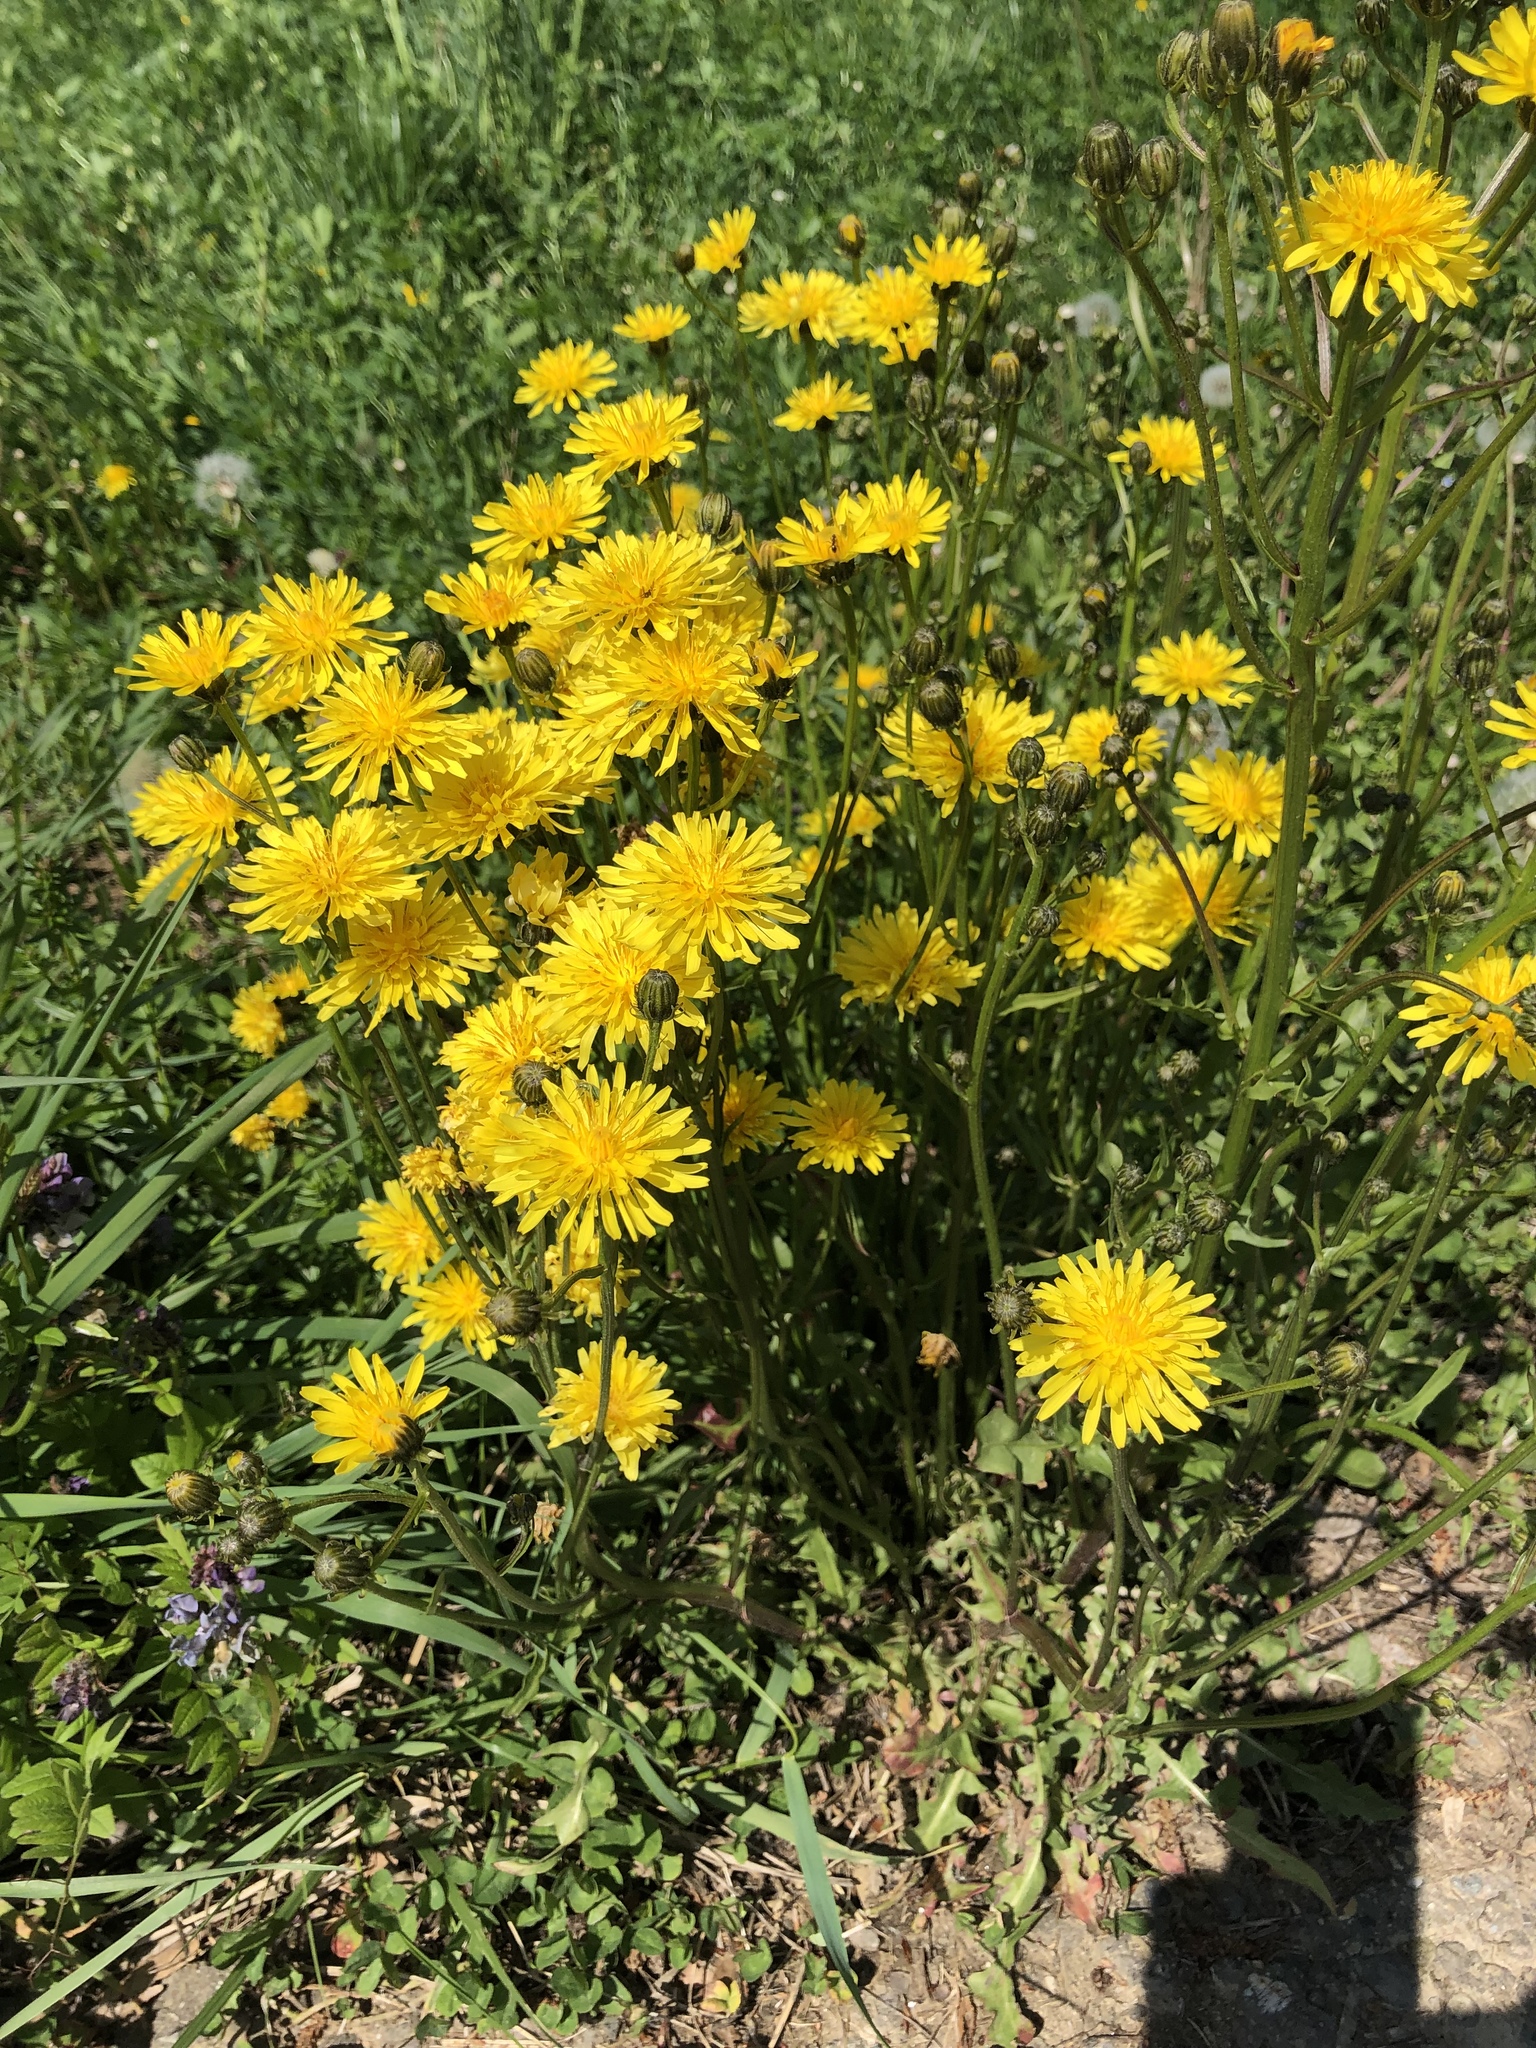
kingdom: Plantae
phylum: Tracheophyta
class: Magnoliopsida
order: Asterales
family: Asteraceae
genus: Crepis
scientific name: Crepis biennis
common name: Rough hawk's-beard
